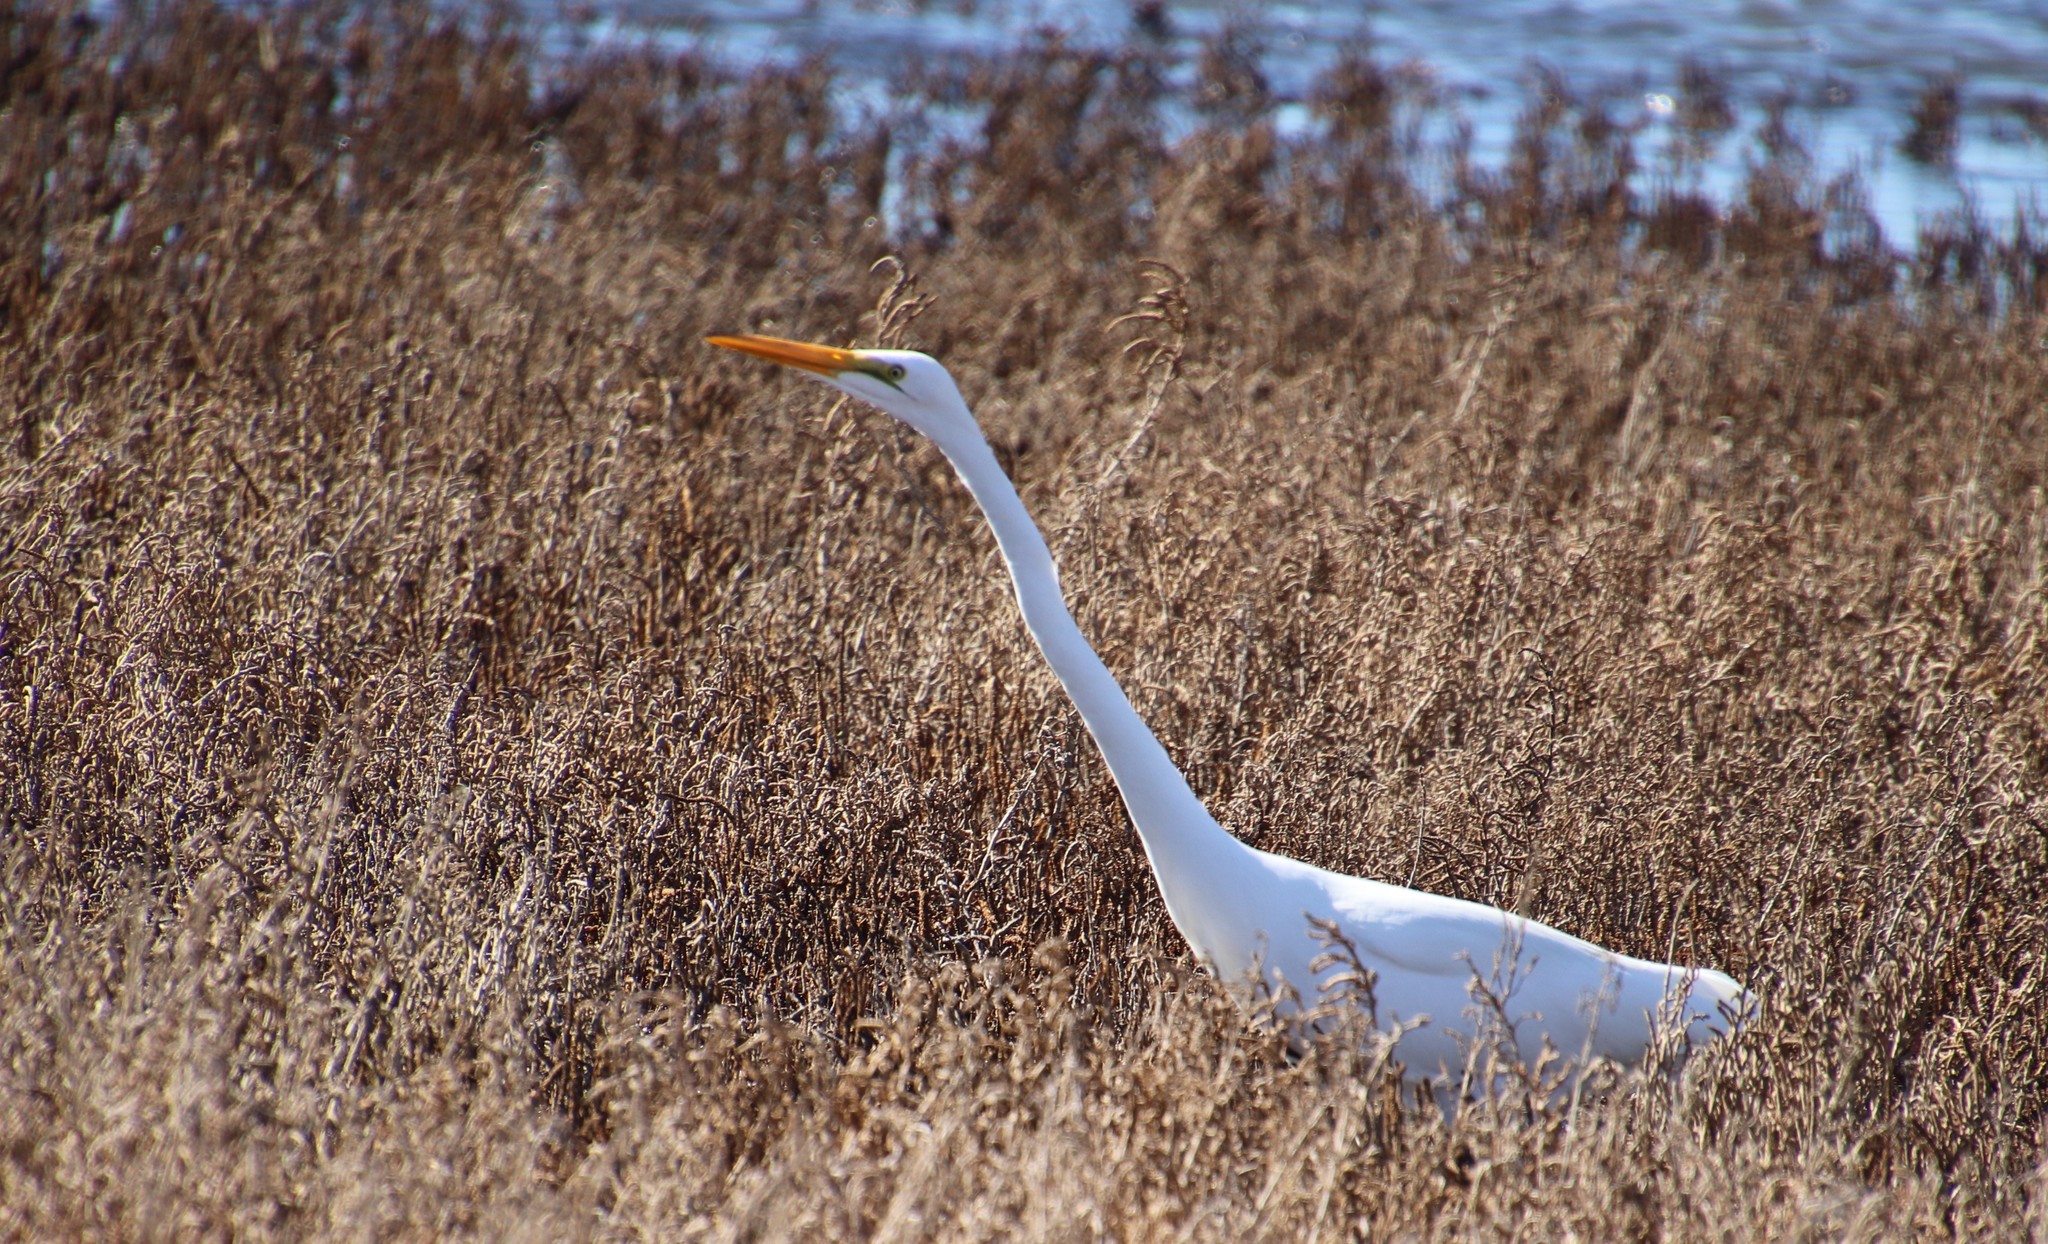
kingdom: Animalia
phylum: Chordata
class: Aves
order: Pelecaniformes
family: Ardeidae
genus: Ardea
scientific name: Ardea alba
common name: Great egret
